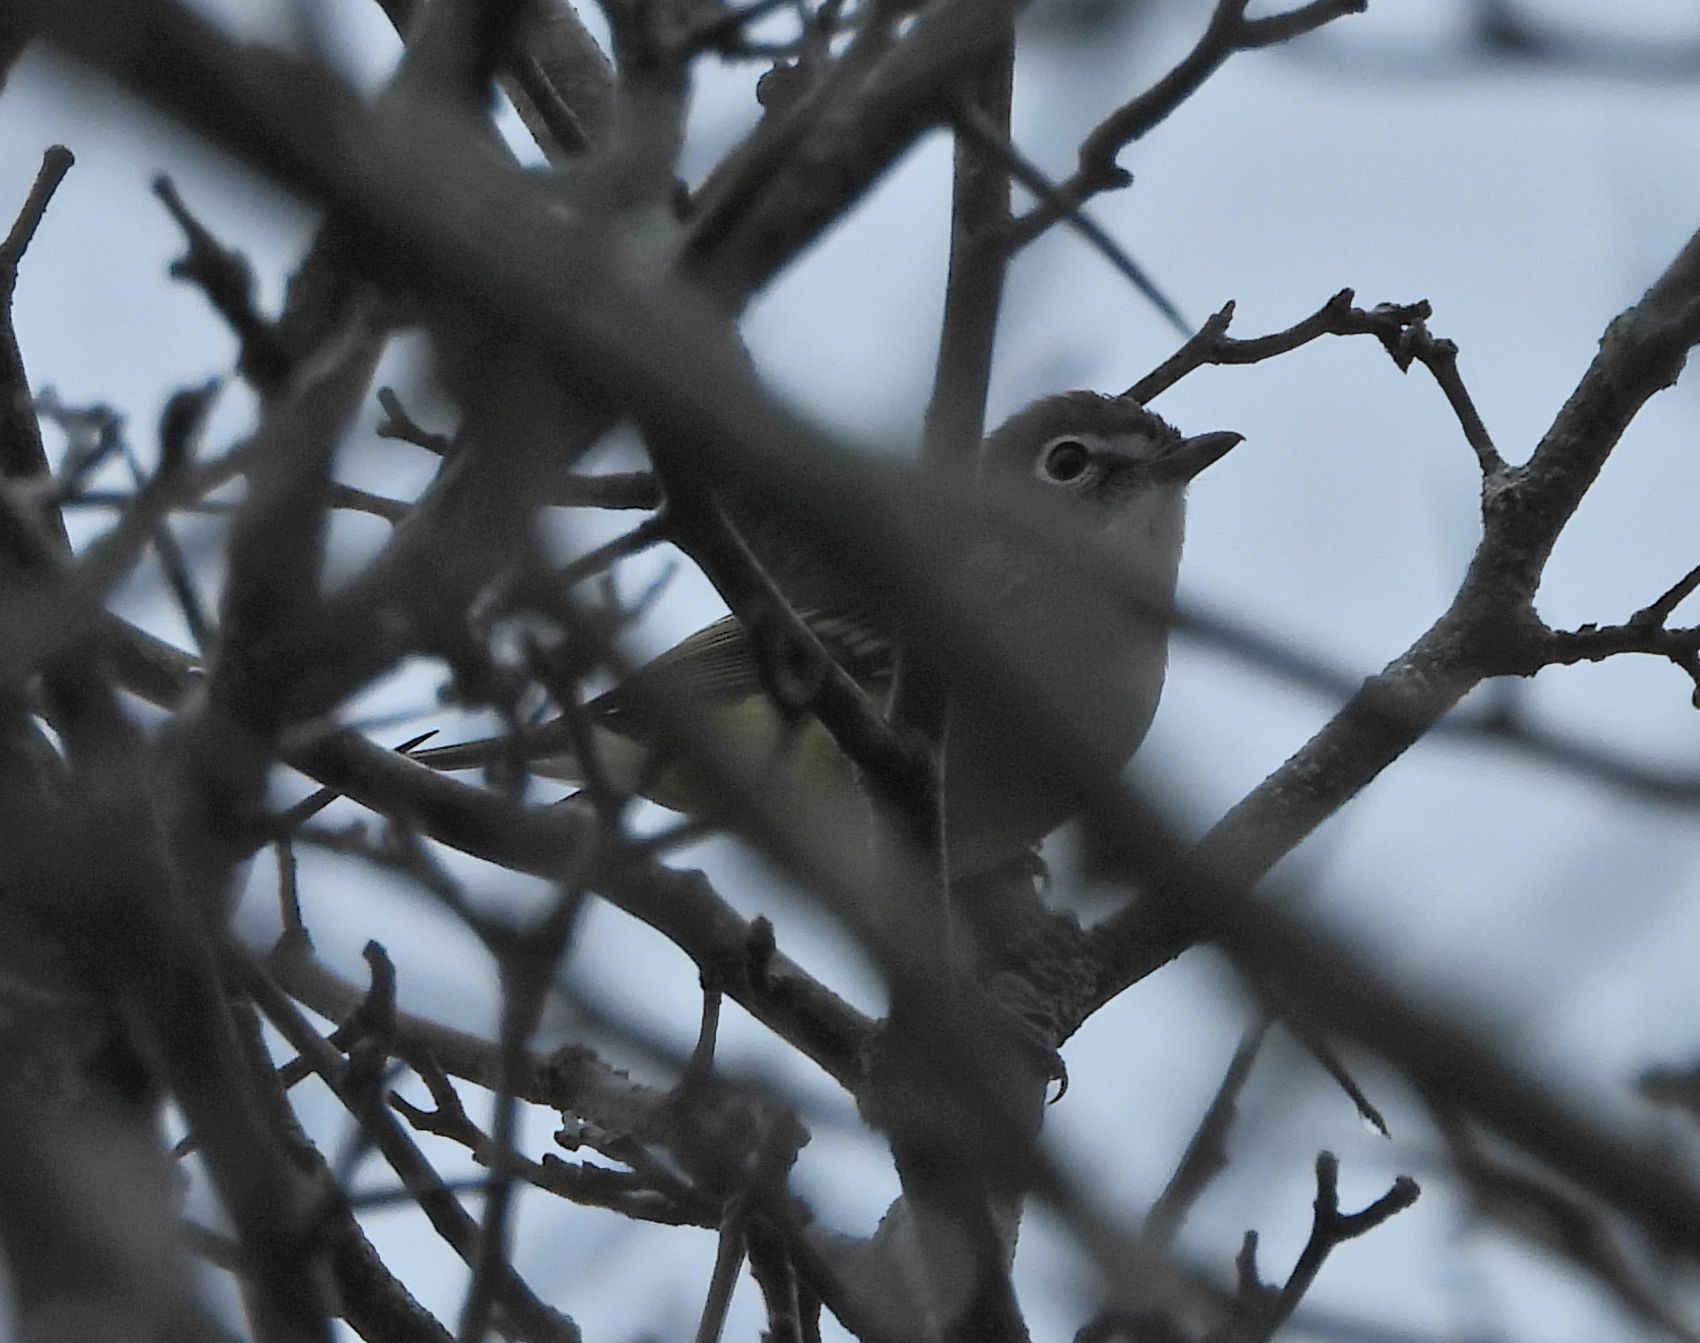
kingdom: Animalia
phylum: Chordata
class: Aves
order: Passeriformes
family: Vireonidae
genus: Vireo
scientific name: Vireo solitarius
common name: Blue-headed vireo
